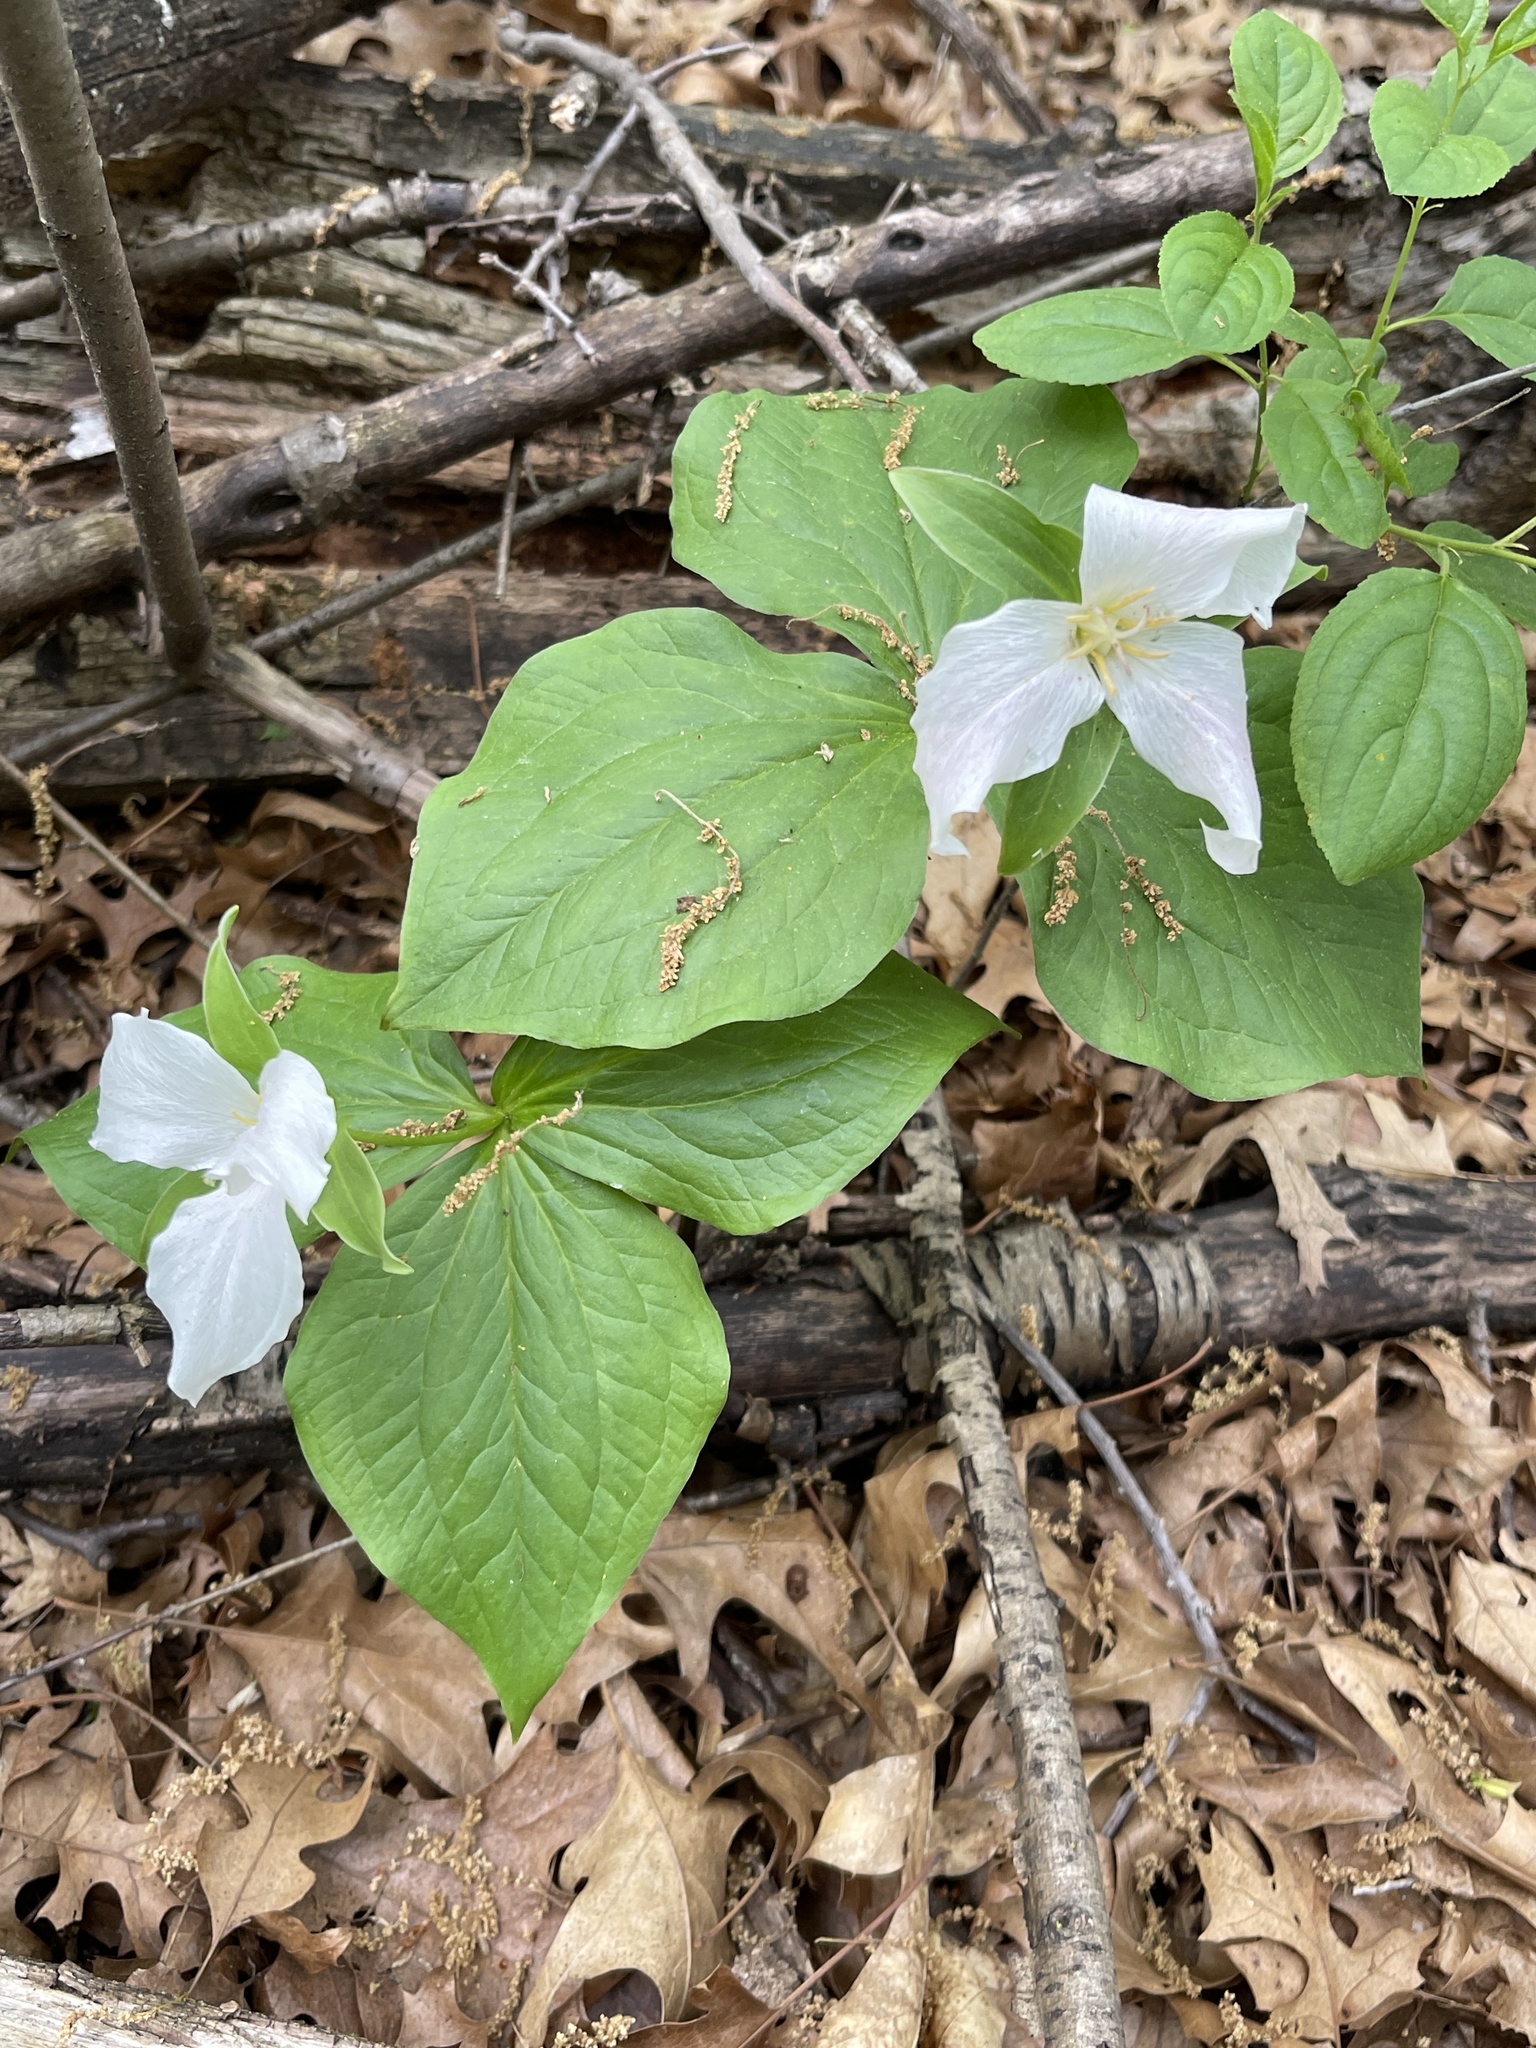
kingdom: Plantae
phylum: Tracheophyta
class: Liliopsida
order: Liliales
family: Melanthiaceae
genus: Trillium
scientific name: Trillium grandiflorum
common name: Great white trillium
